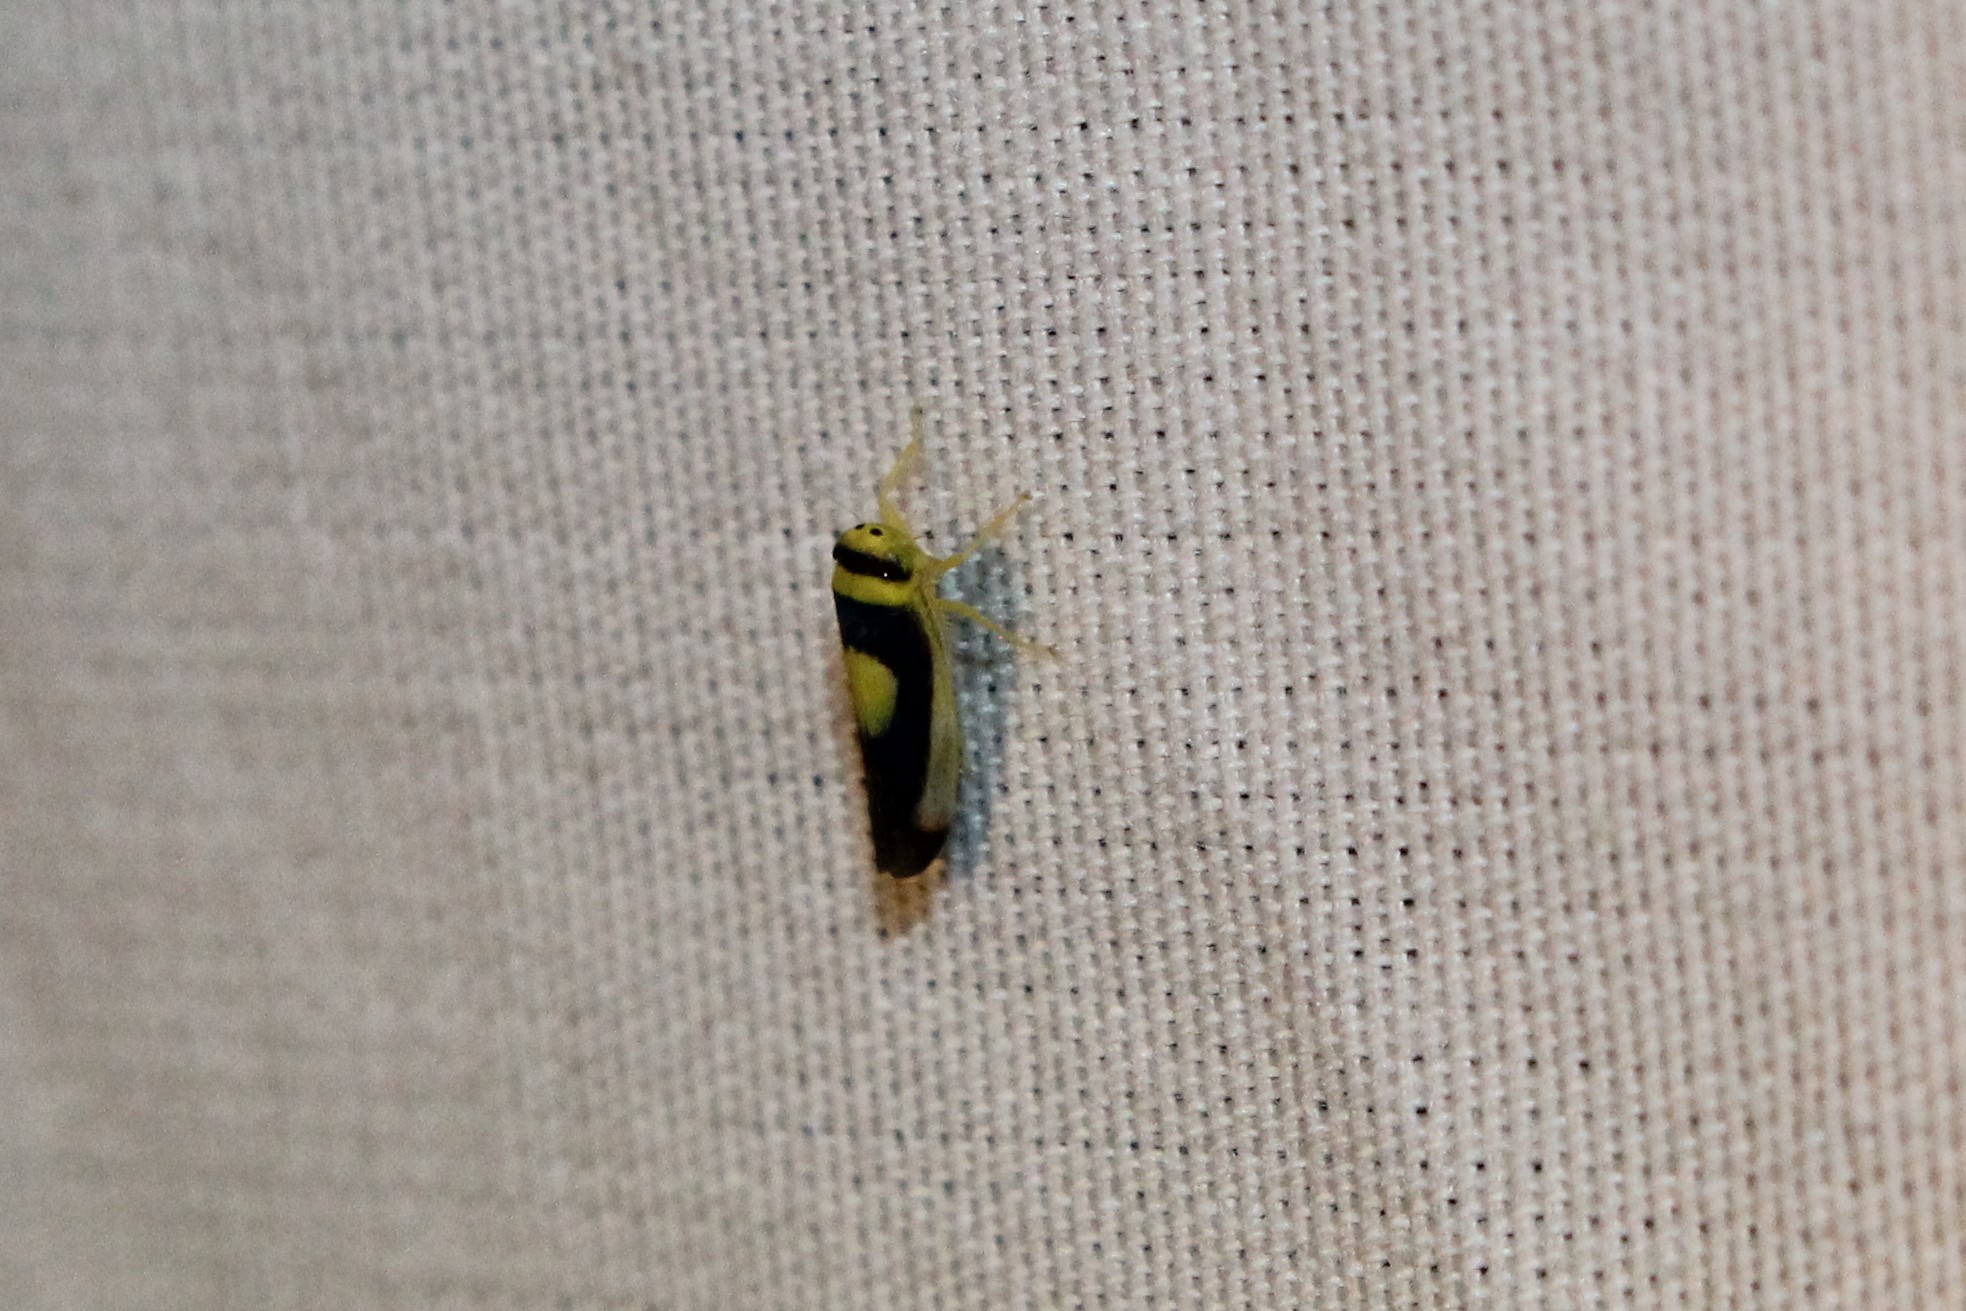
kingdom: Animalia
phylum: Arthropoda
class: Insecta
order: Hemiptera
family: Cicadellidae
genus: Colladonus
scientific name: Colladonus clitellarius
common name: The saddleback leafhopper
